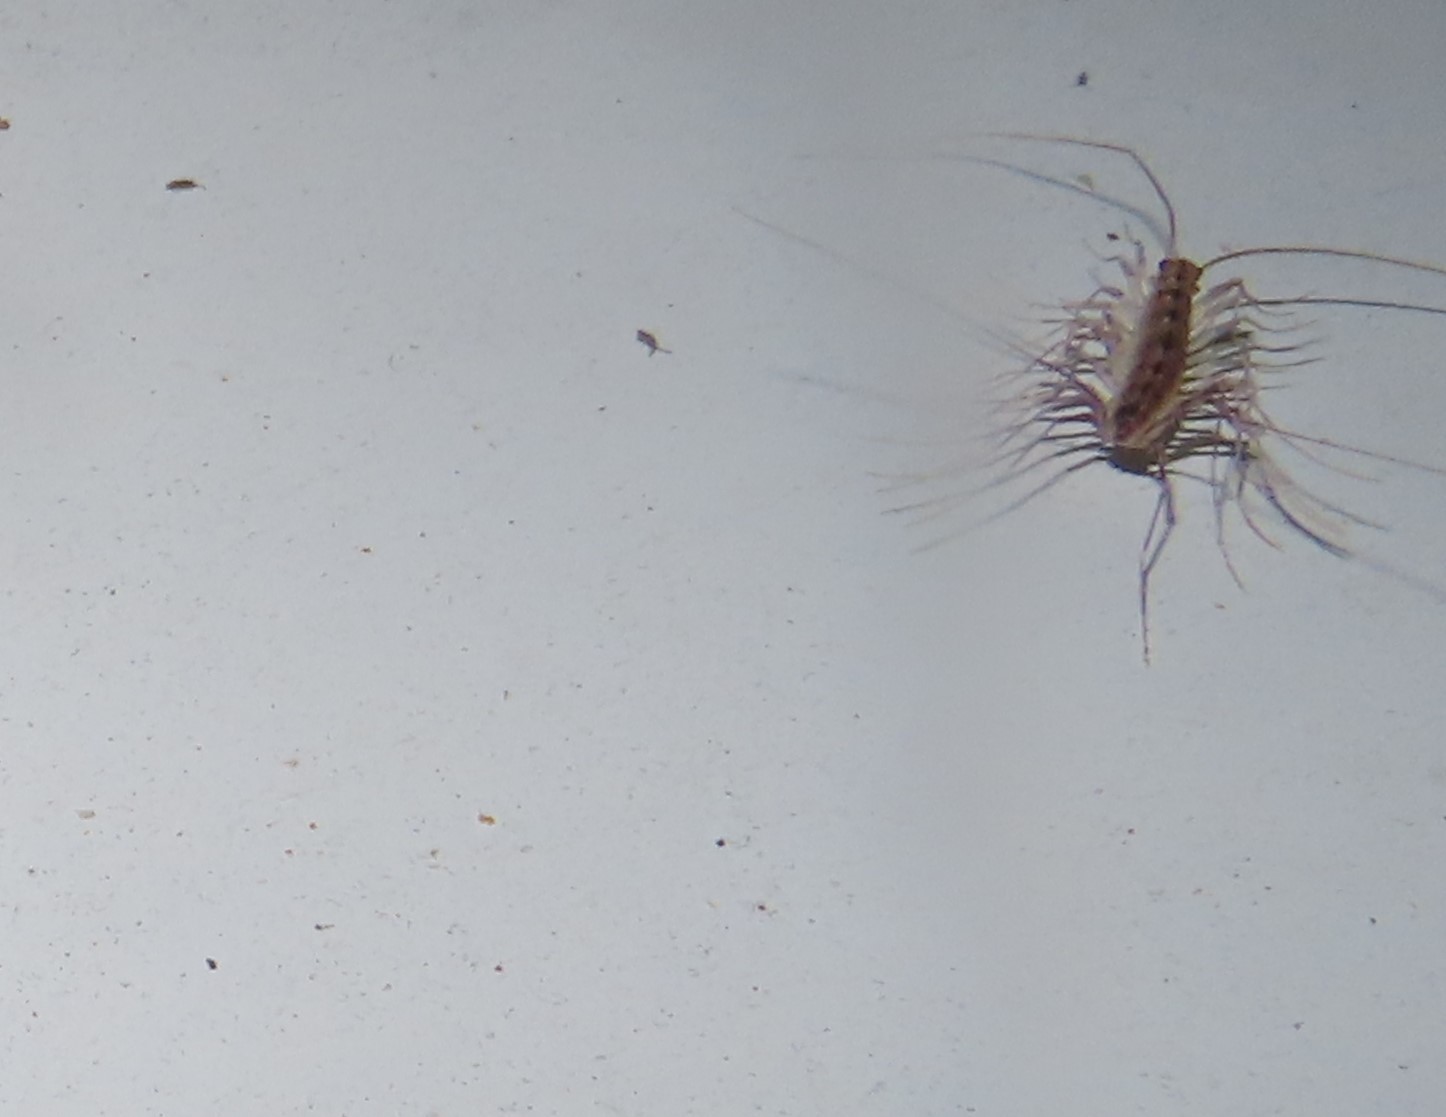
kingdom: Animalia
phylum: Arthropoda
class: Chilopoda
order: Scutigeromorpha
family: Scutigeridae
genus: Scutigera
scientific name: Scutigera coleoptrata
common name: House centipede
